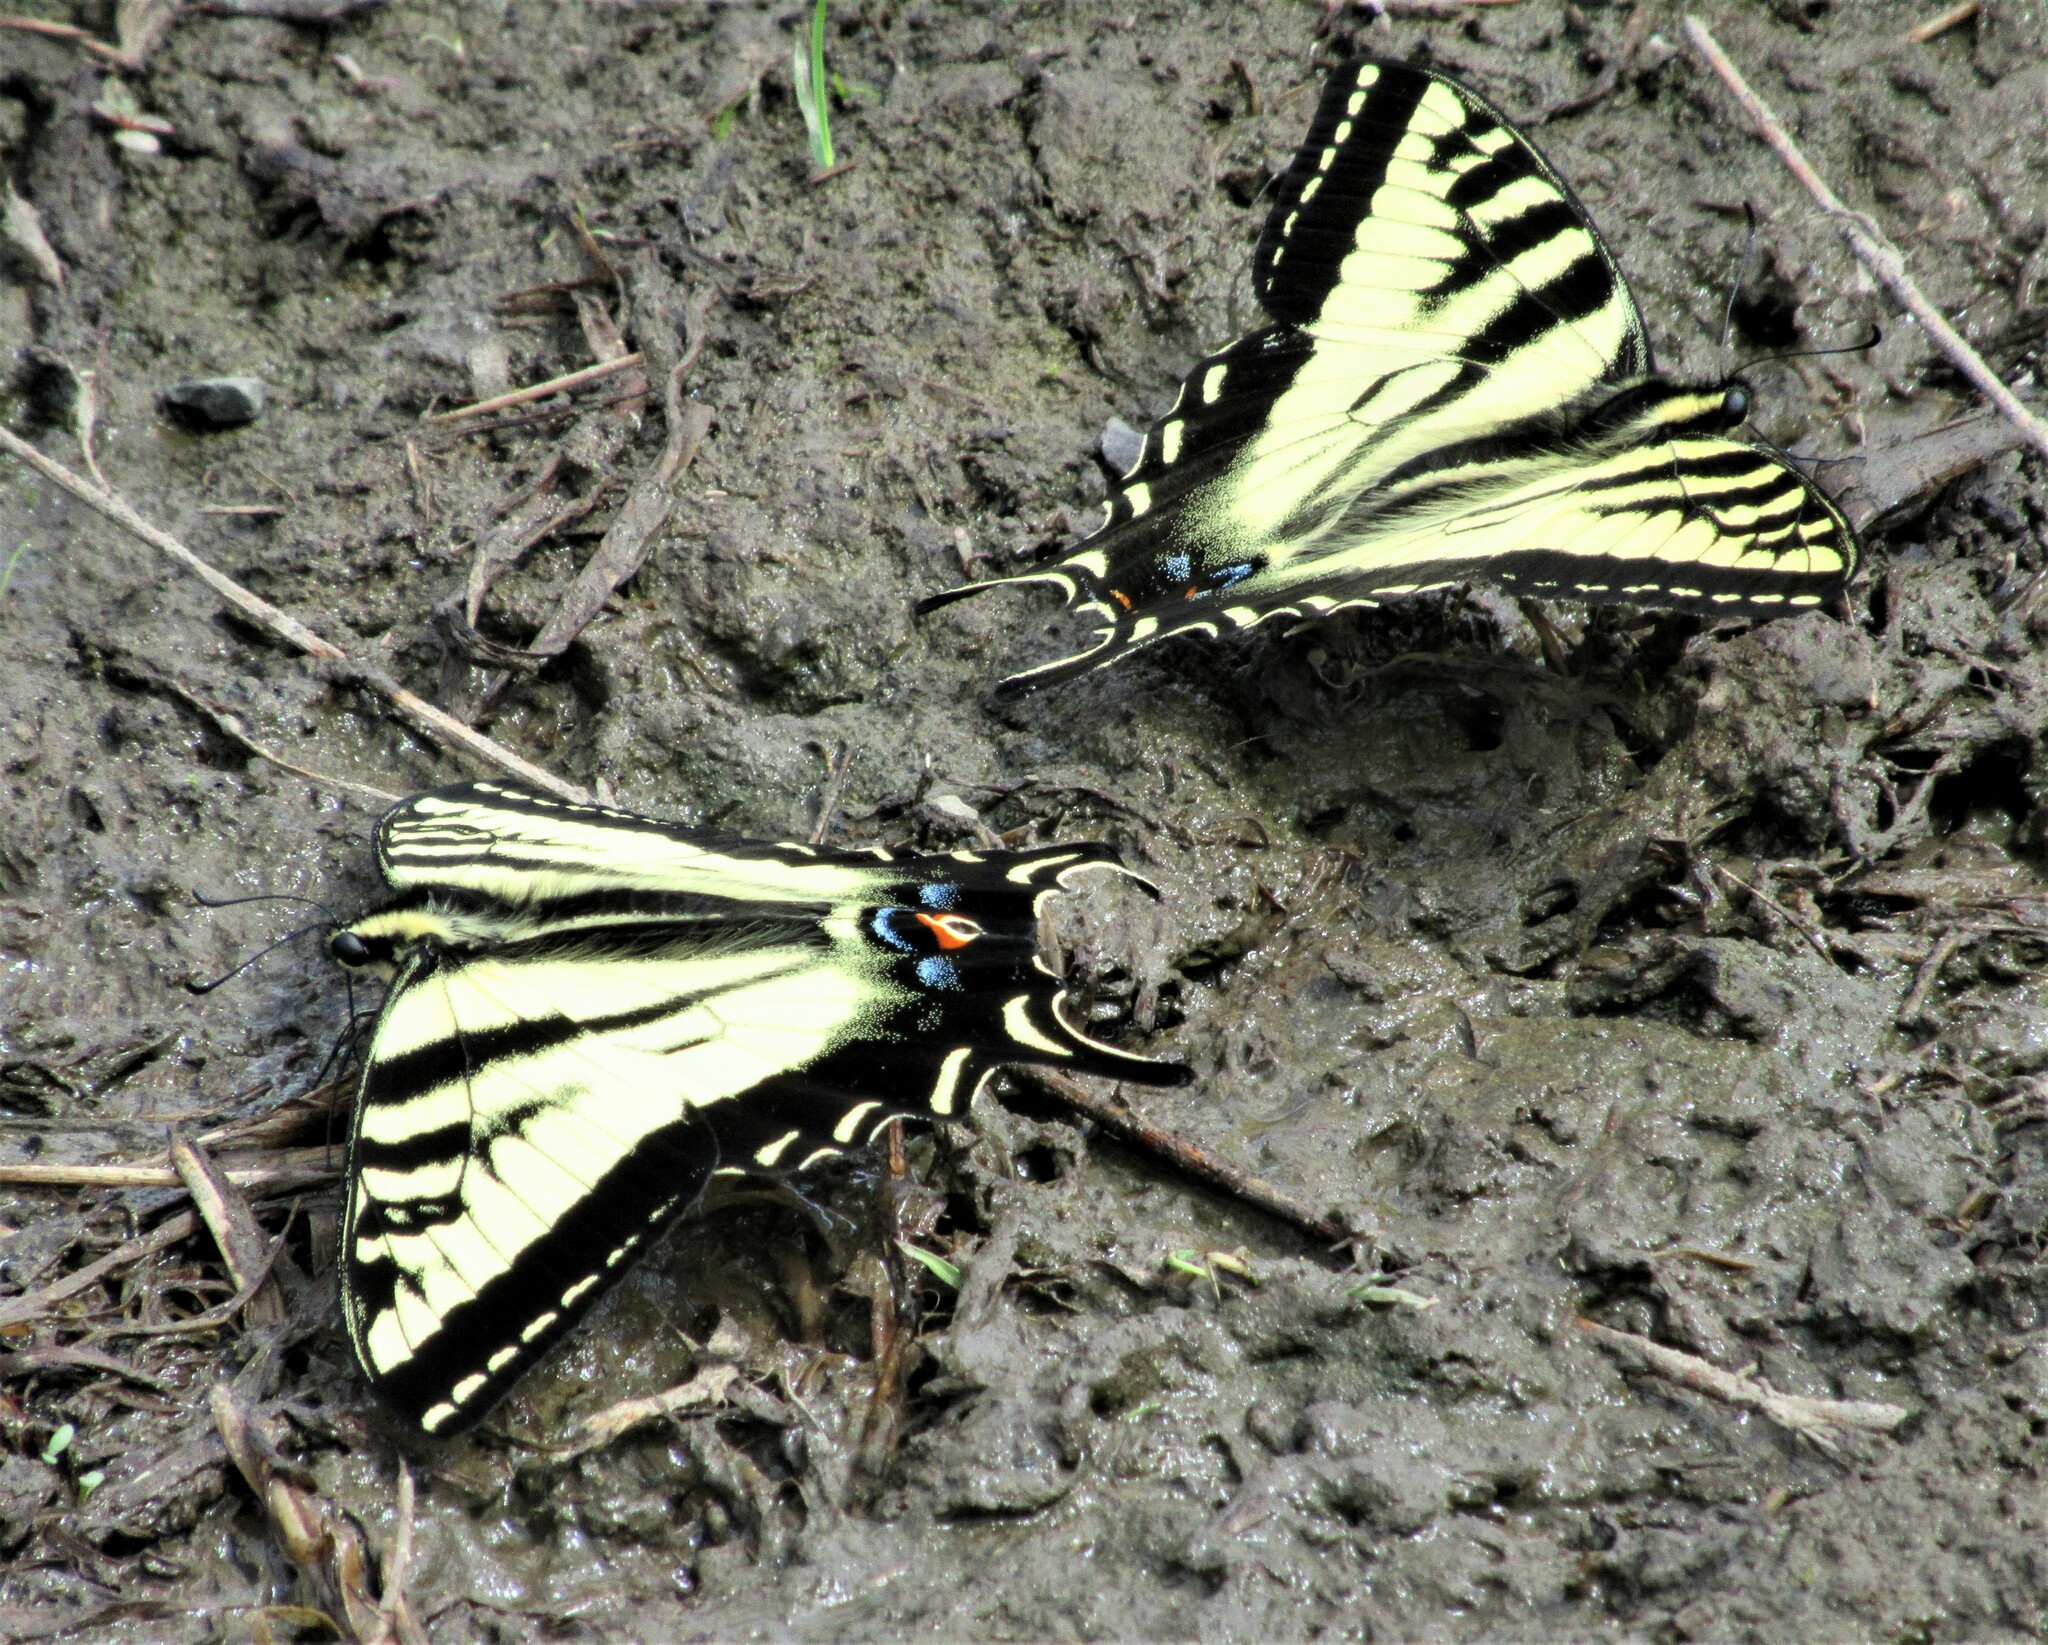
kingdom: Animalia
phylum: Arthropoda
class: Insecta
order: Lepidoptera
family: Papilionidae
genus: Papilio
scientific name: Papilio rutulus
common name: Western tiger swallowtail
